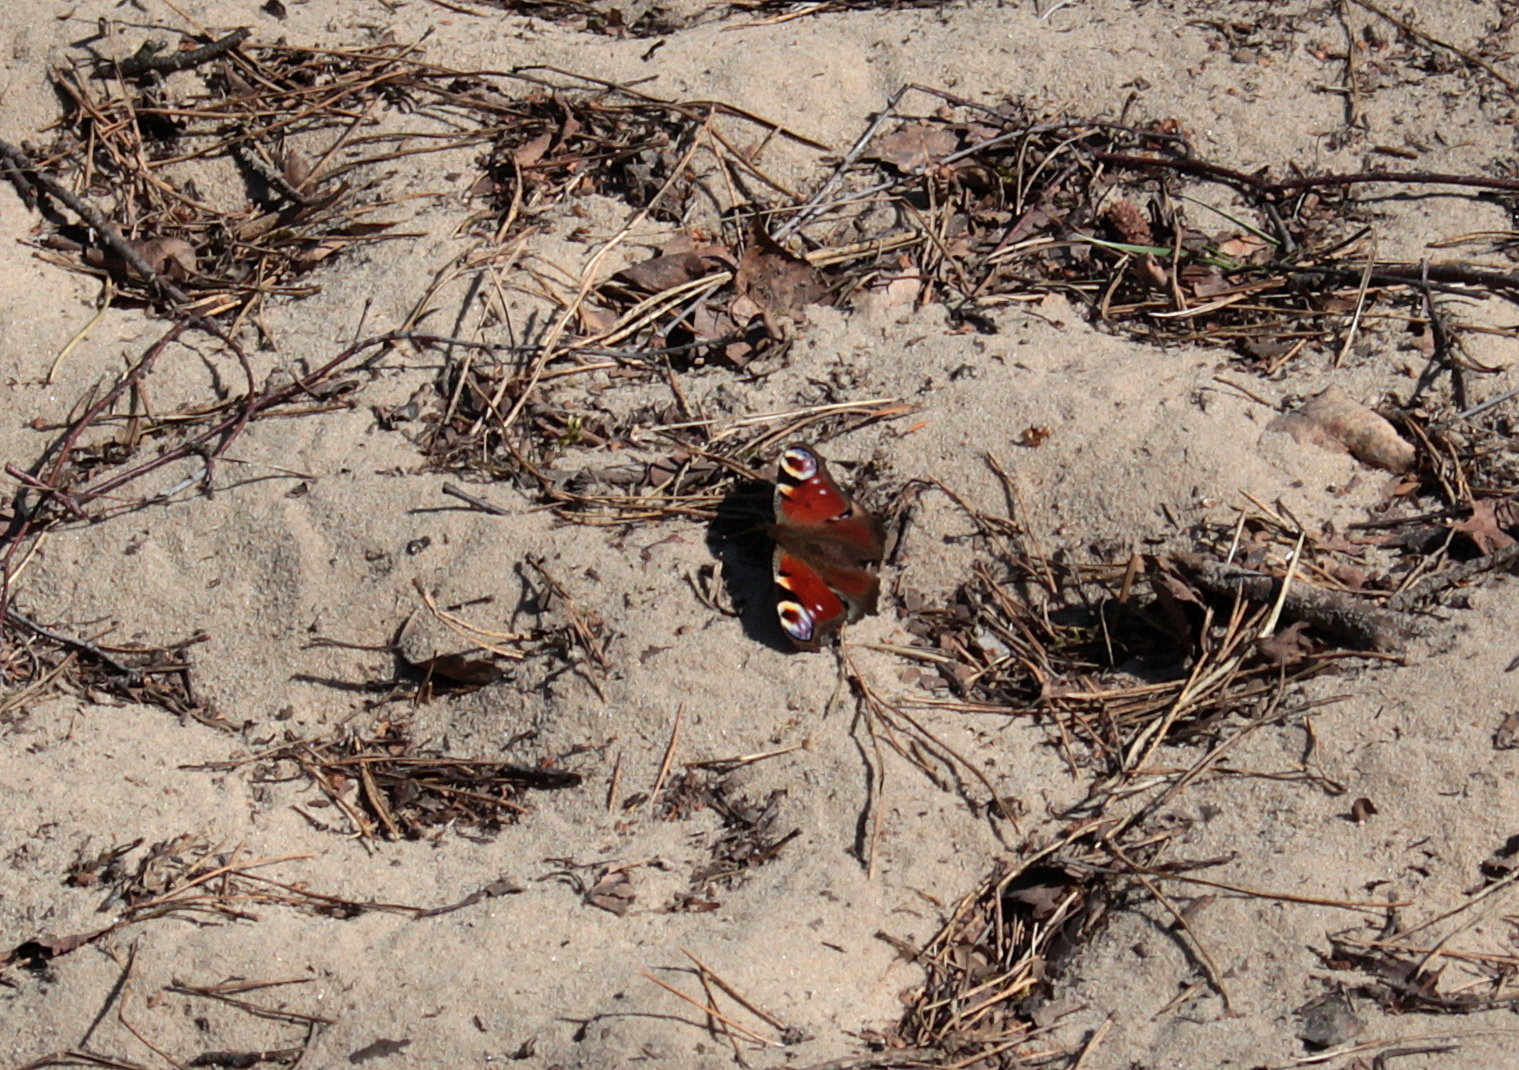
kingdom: Animalia
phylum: Arthropoda
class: Insecta
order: Lepidoptera
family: Nymphalidae
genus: Aglais
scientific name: Aglais io
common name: Peacock
